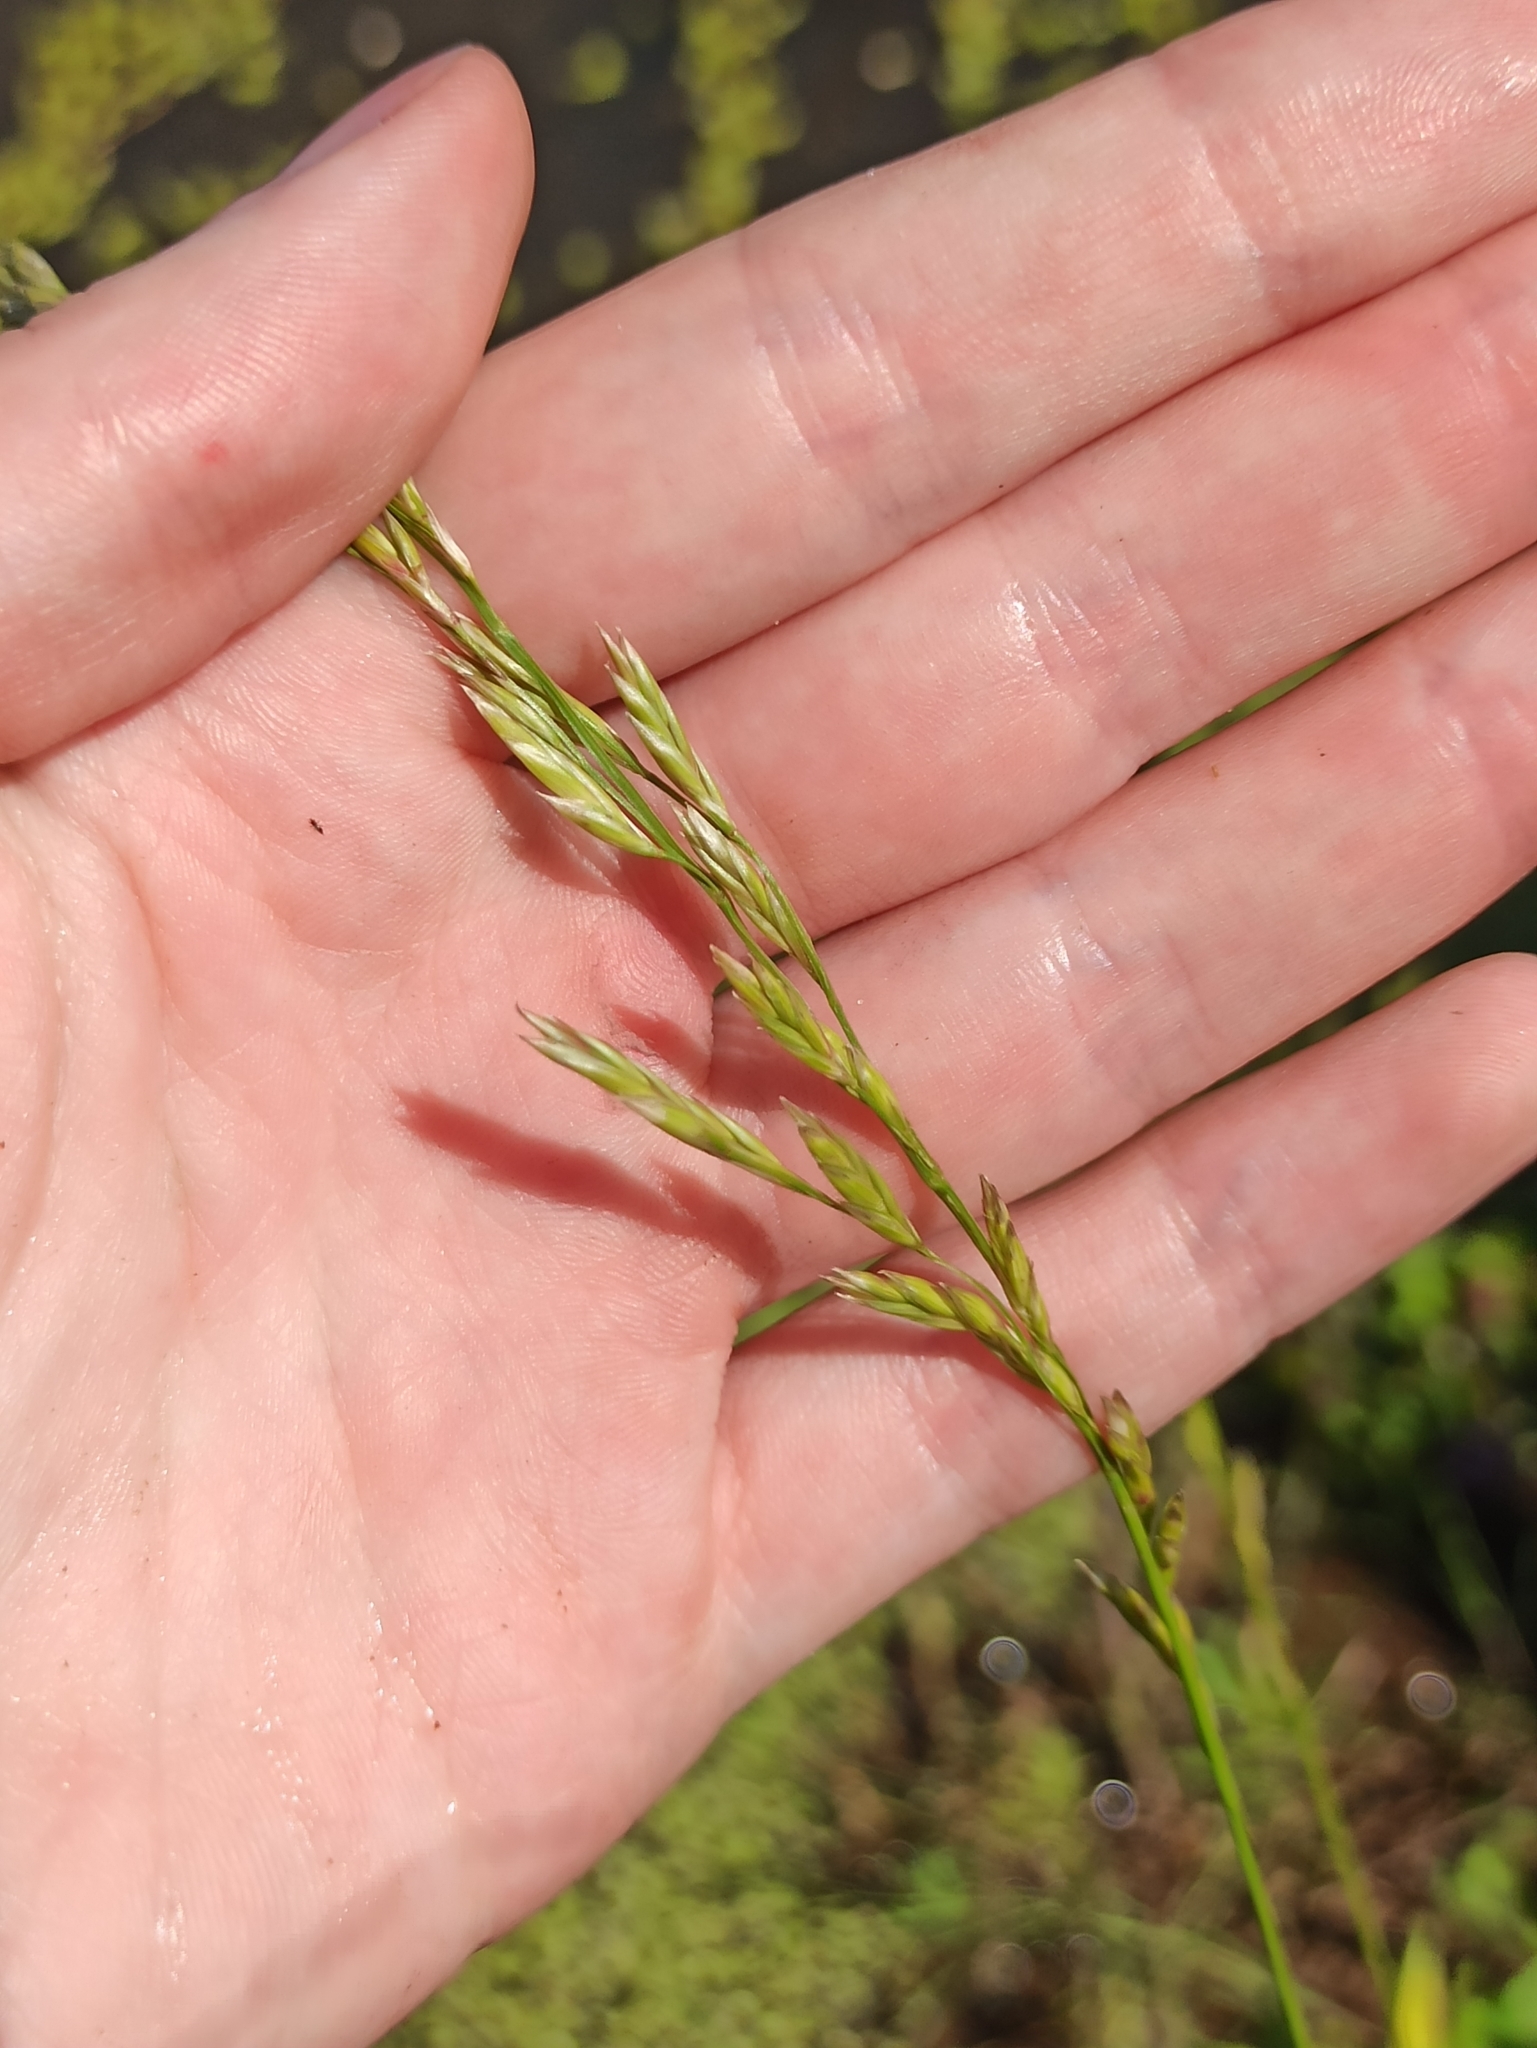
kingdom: Plantae
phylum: Tracheophyta
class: Liliopsida
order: Poales
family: Poaceae
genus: Lolium
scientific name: Lolium pratense
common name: Dover grass
